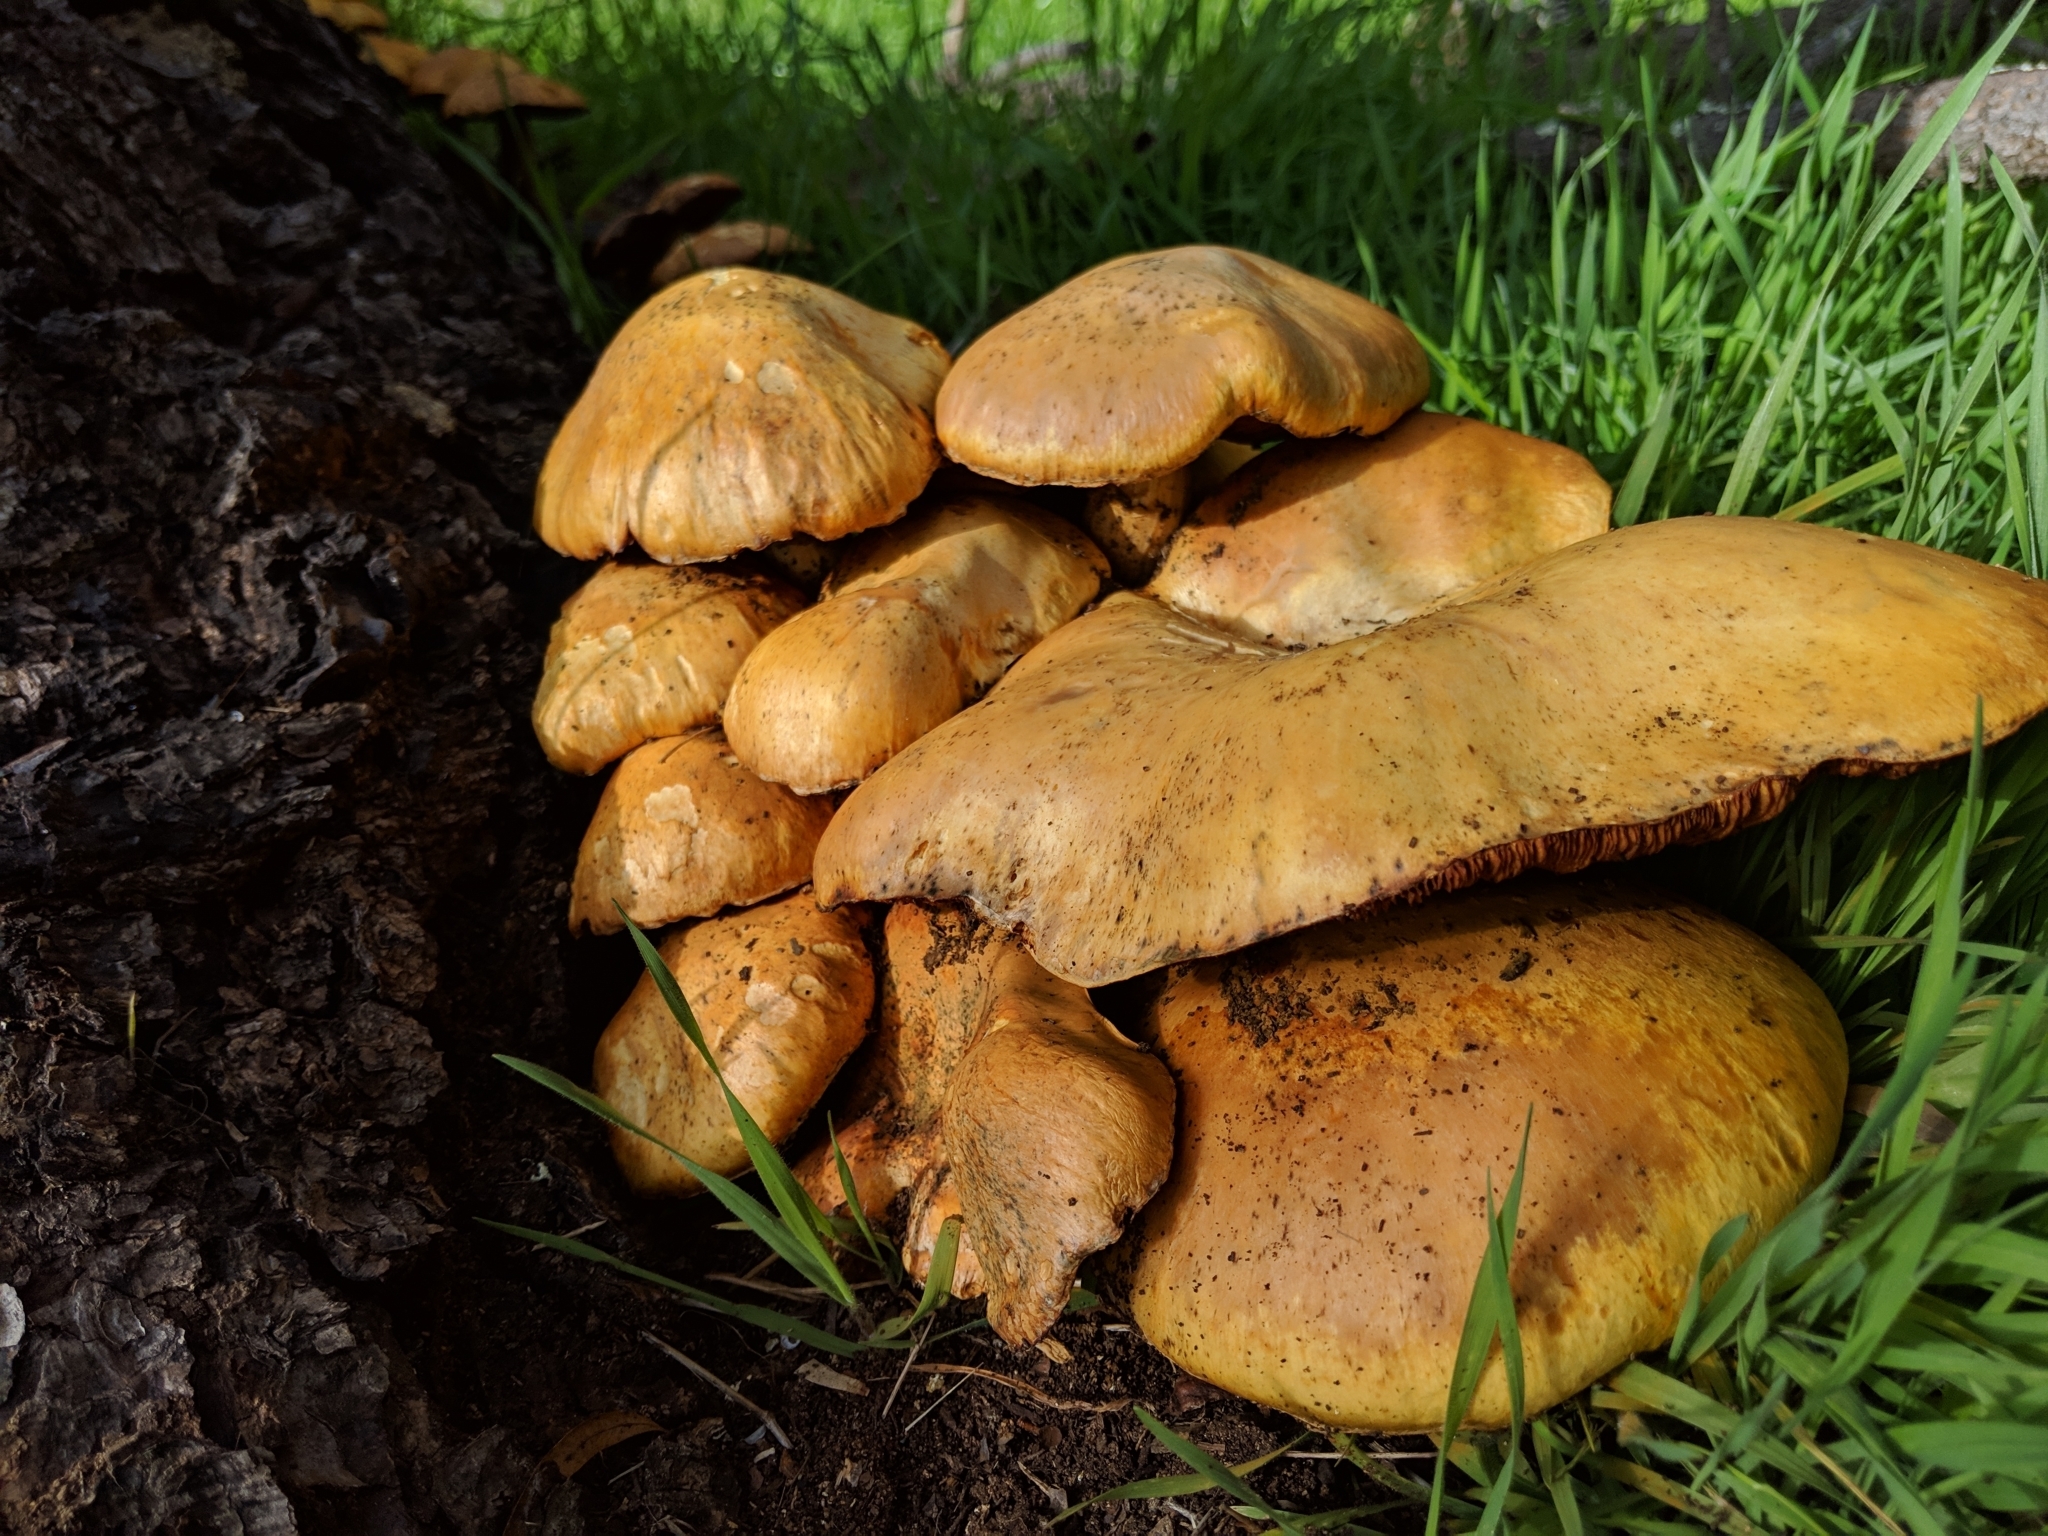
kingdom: Fungi
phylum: Basidiomycota
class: Agaricomycetes
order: Agaricales
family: Hymenogastraceae
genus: Gymnopilus
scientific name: Gymnopilus ventricosus
